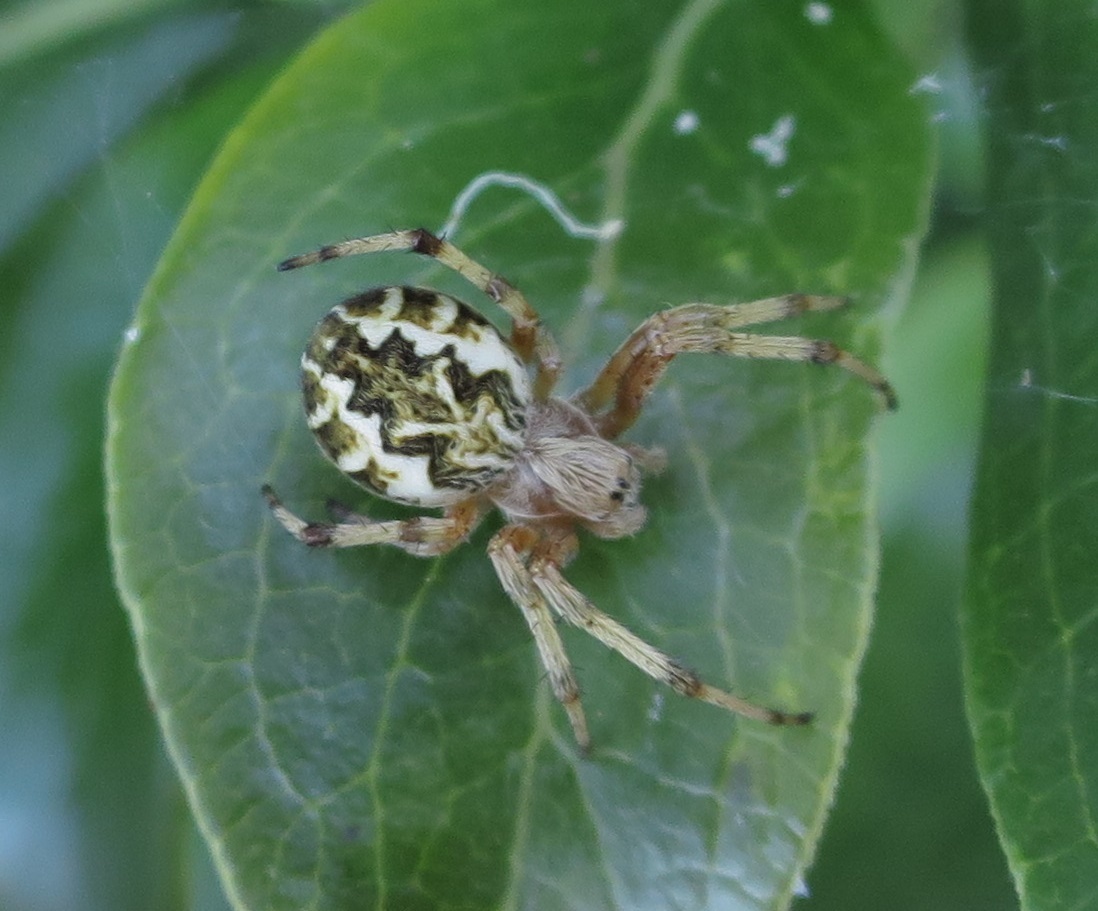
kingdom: Animalia
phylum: Arthropoda
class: Arachnida
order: Araneae
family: Araneidae
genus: Salsa
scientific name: Salsa fuliginata
